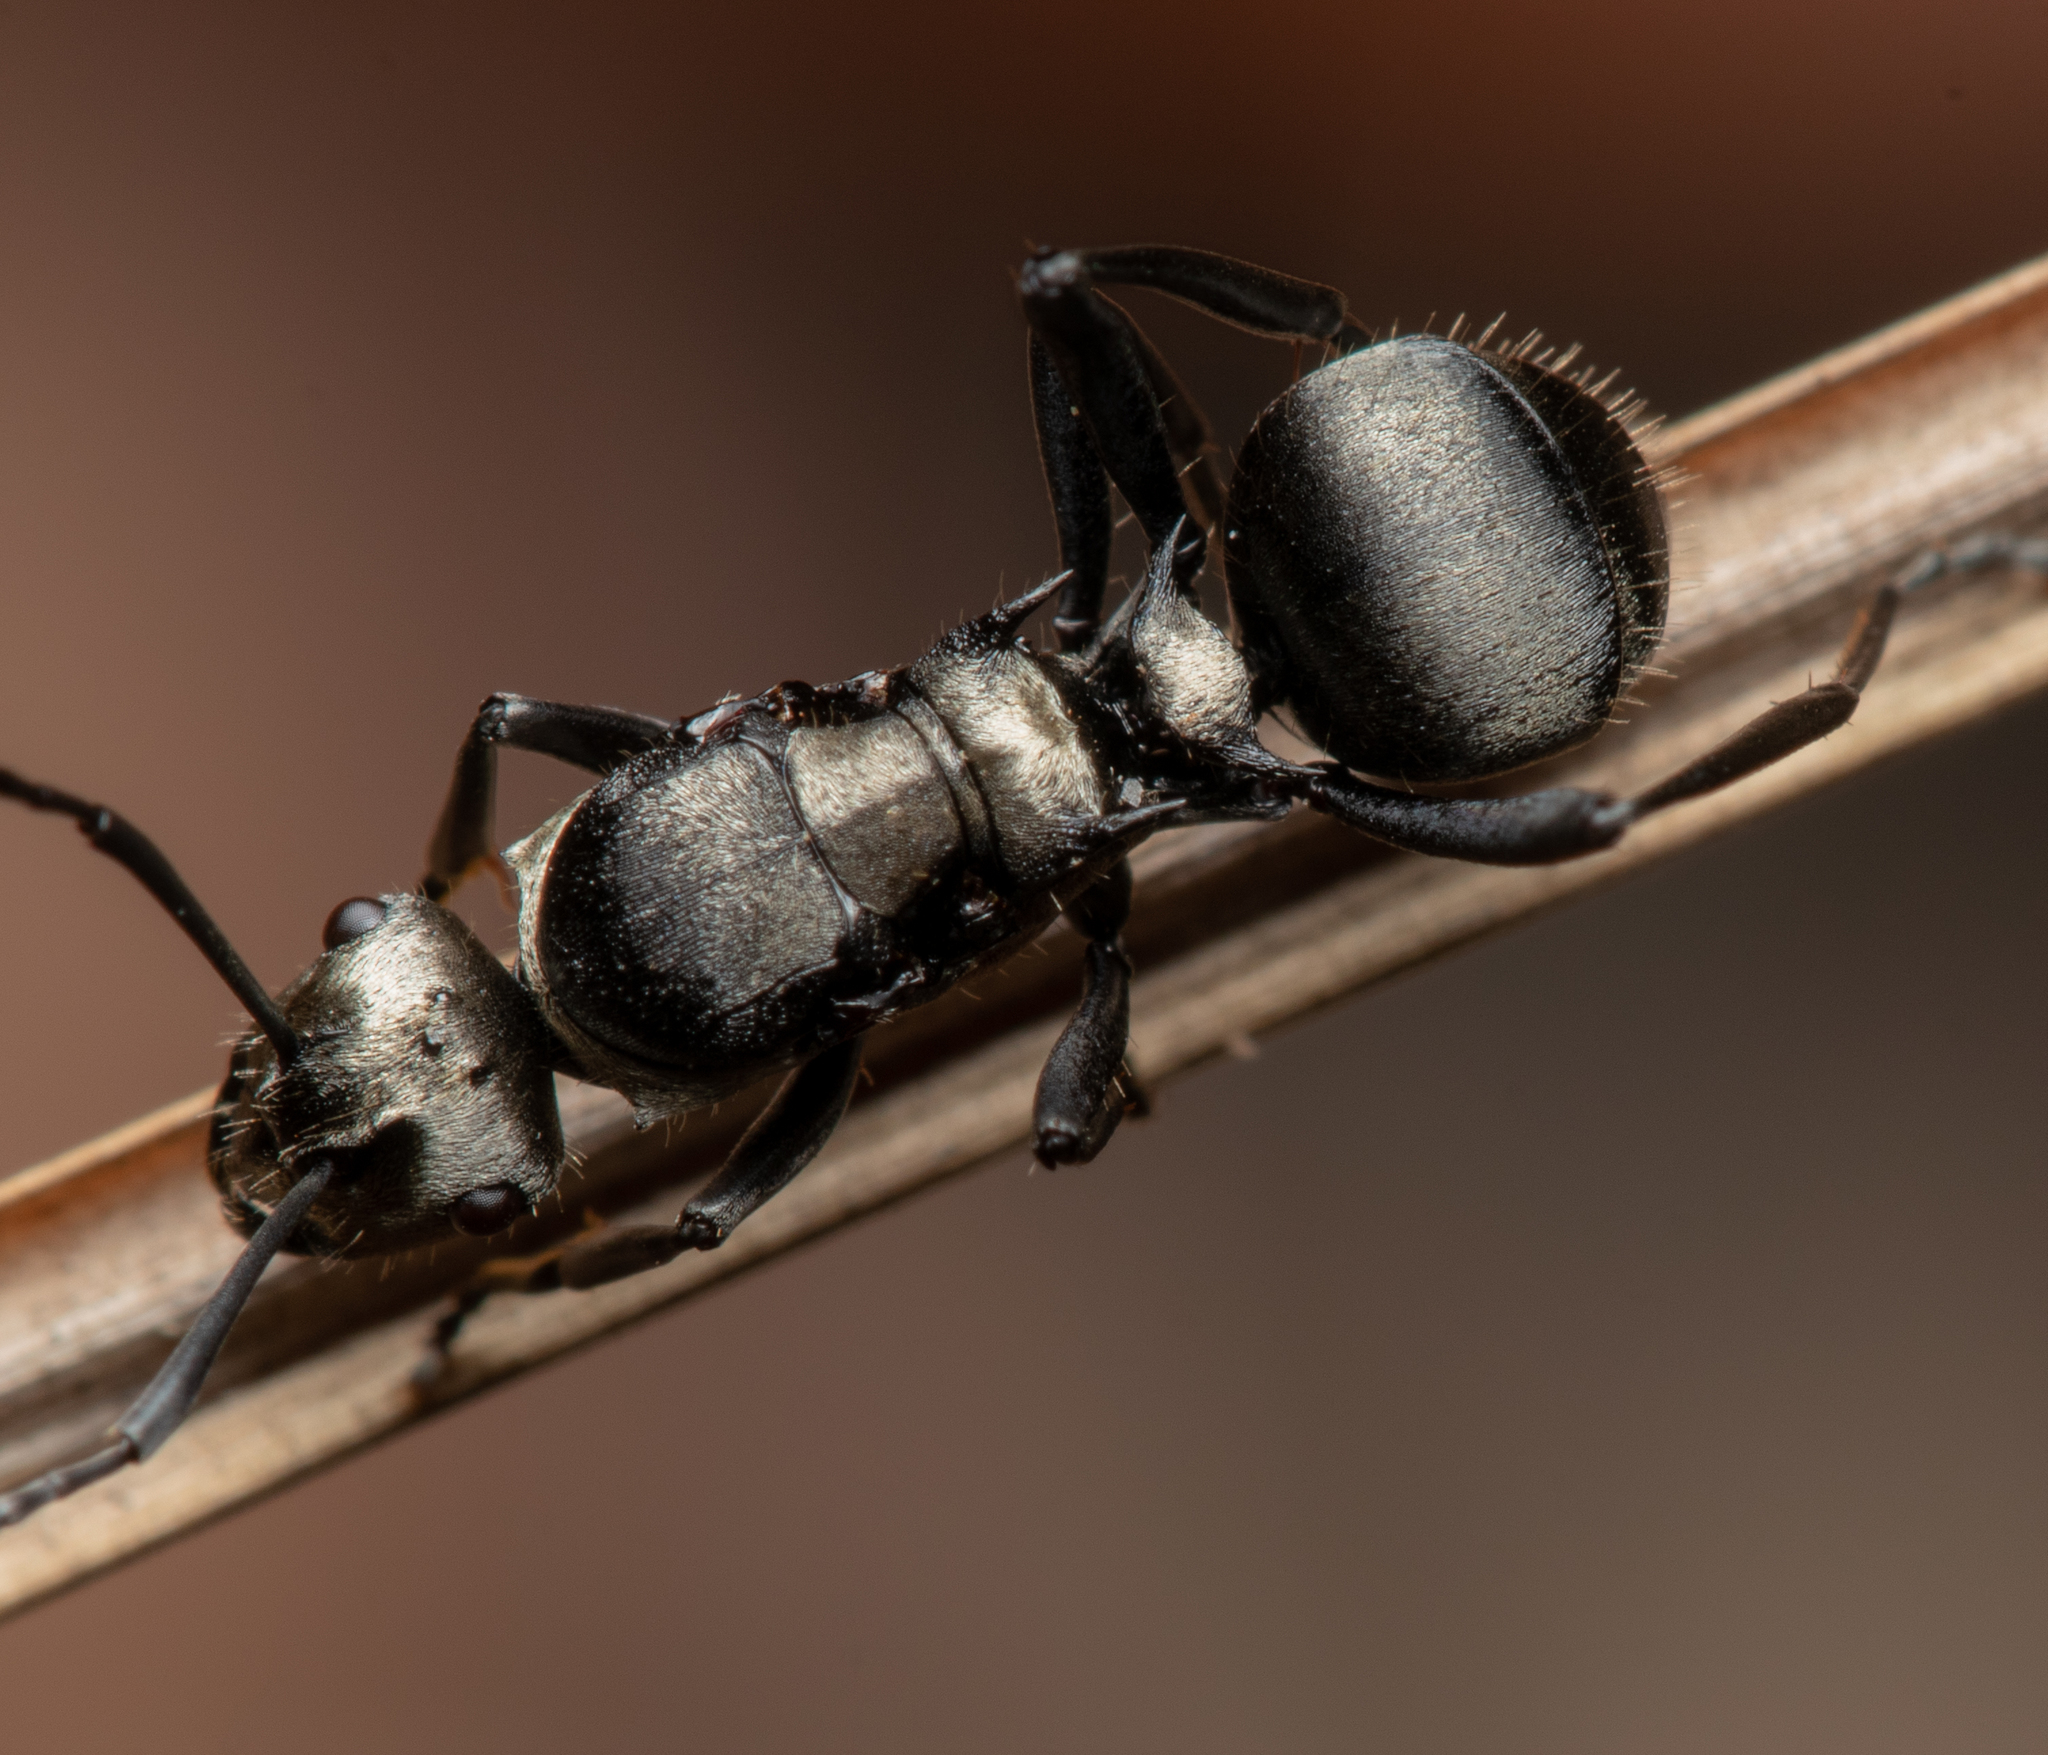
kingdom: Animalia
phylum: Arthropoda
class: Insecta
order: Hymenoptera
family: Formicidae
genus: Polyrhachis
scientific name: Polyrhachis daemeli
